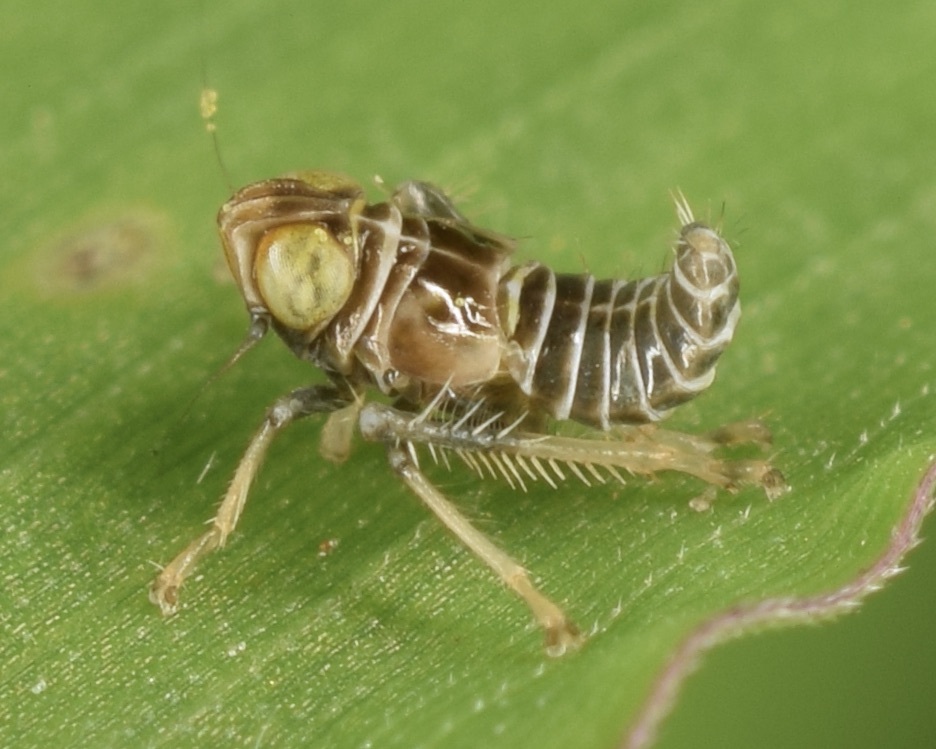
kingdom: Animalia
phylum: Arthropoda
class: Insecta
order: Hemiptera
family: Cicadellidae
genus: Jikradia
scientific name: Jikradia olitoria
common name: Coppery leafhopper
